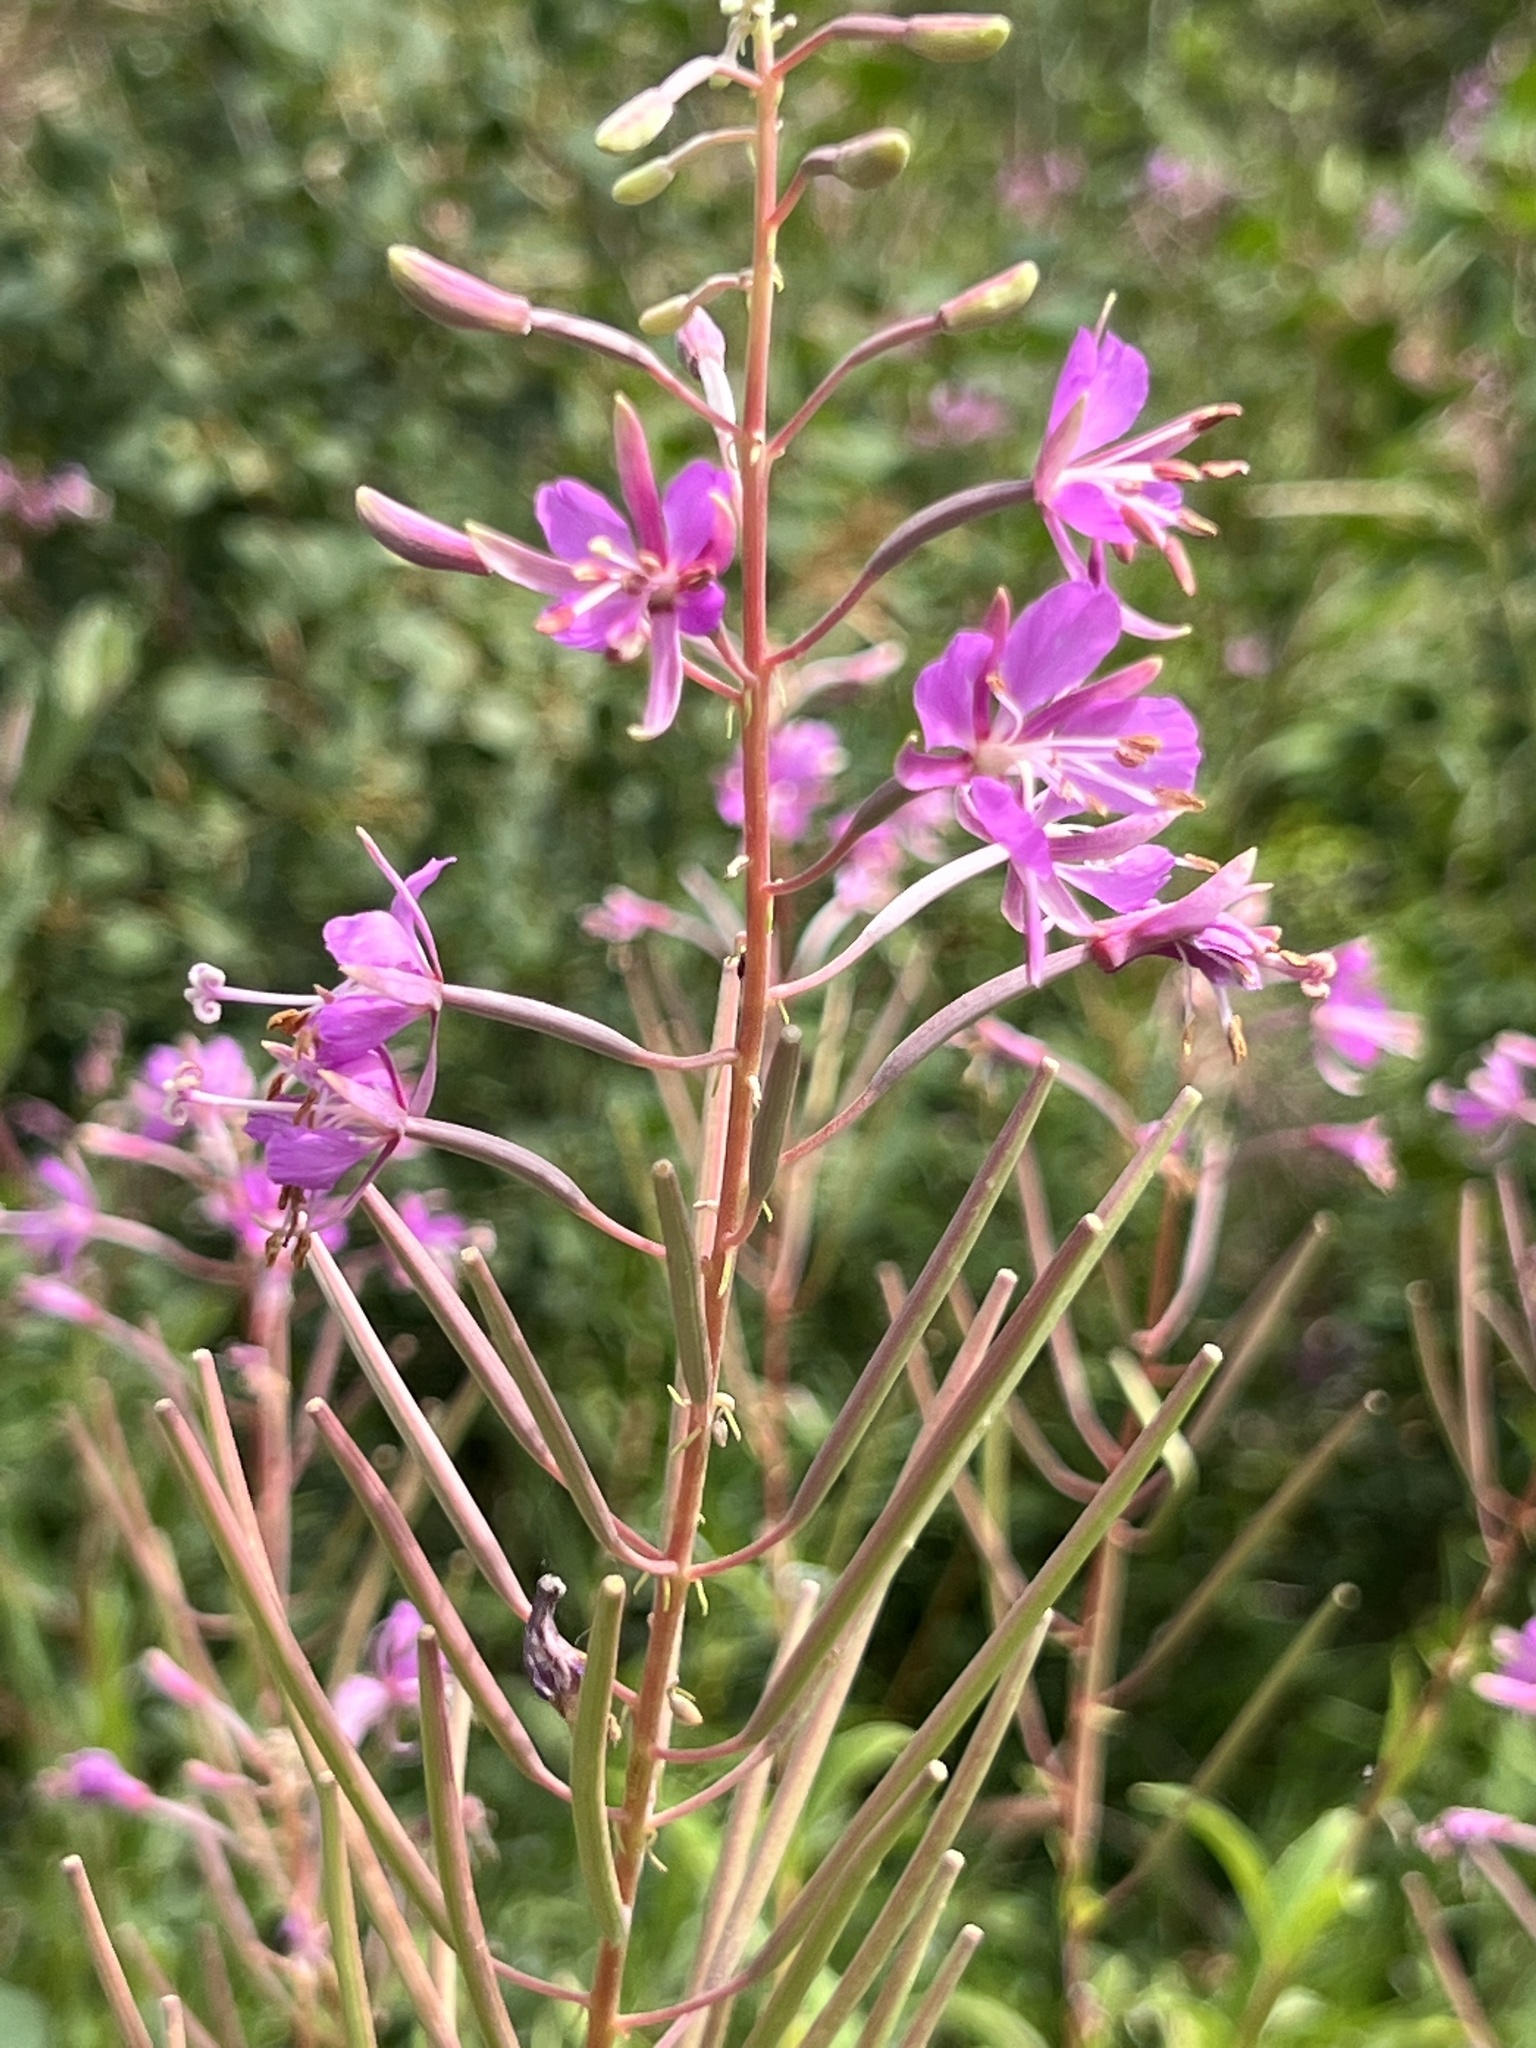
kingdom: Plantae
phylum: Tracheophyta
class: Magnoliopsida
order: Myrtales
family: Onagraceae
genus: Chamaenerion
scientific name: Chamaenerion angustifolium
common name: Fireweed
